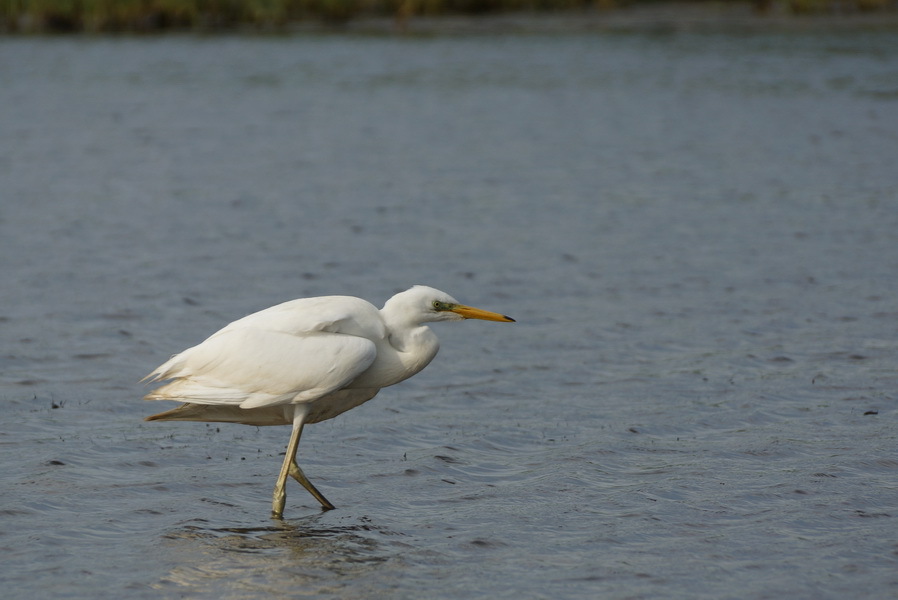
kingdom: Animalia
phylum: Chordata
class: Aves
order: Pelecaniformes
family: Ardeidae
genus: Ardea
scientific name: Ardea alba
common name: Great egret
